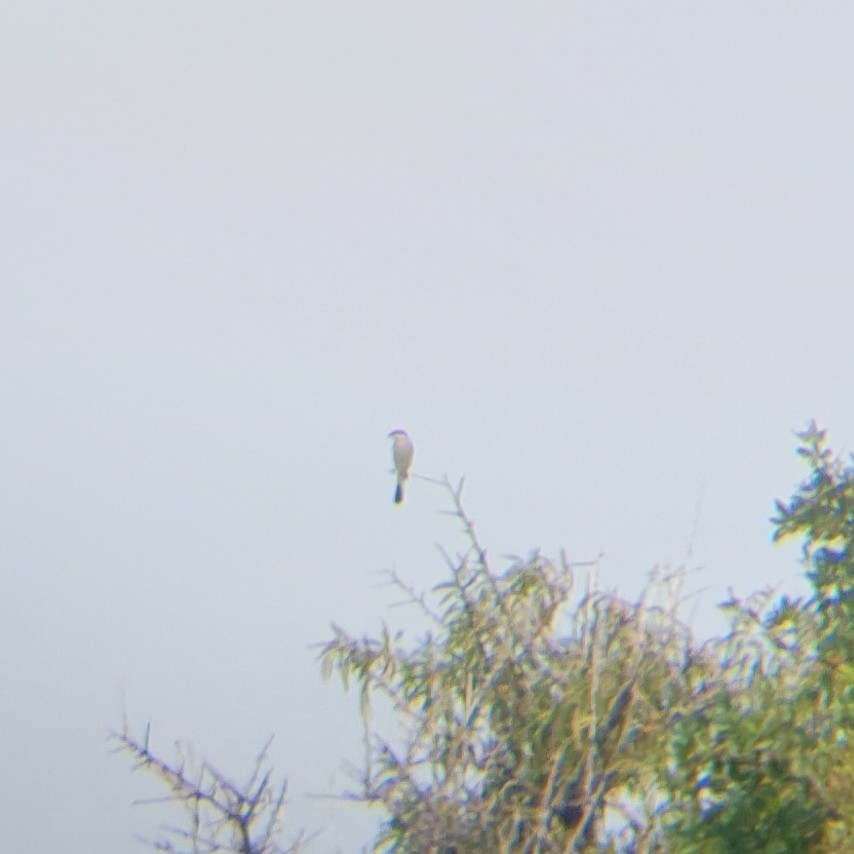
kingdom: Animalia
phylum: Chordata
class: Aves
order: Passeriformes
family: Laniidae
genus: Lanius
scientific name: Lanius collurio
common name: Red-backed shrike
